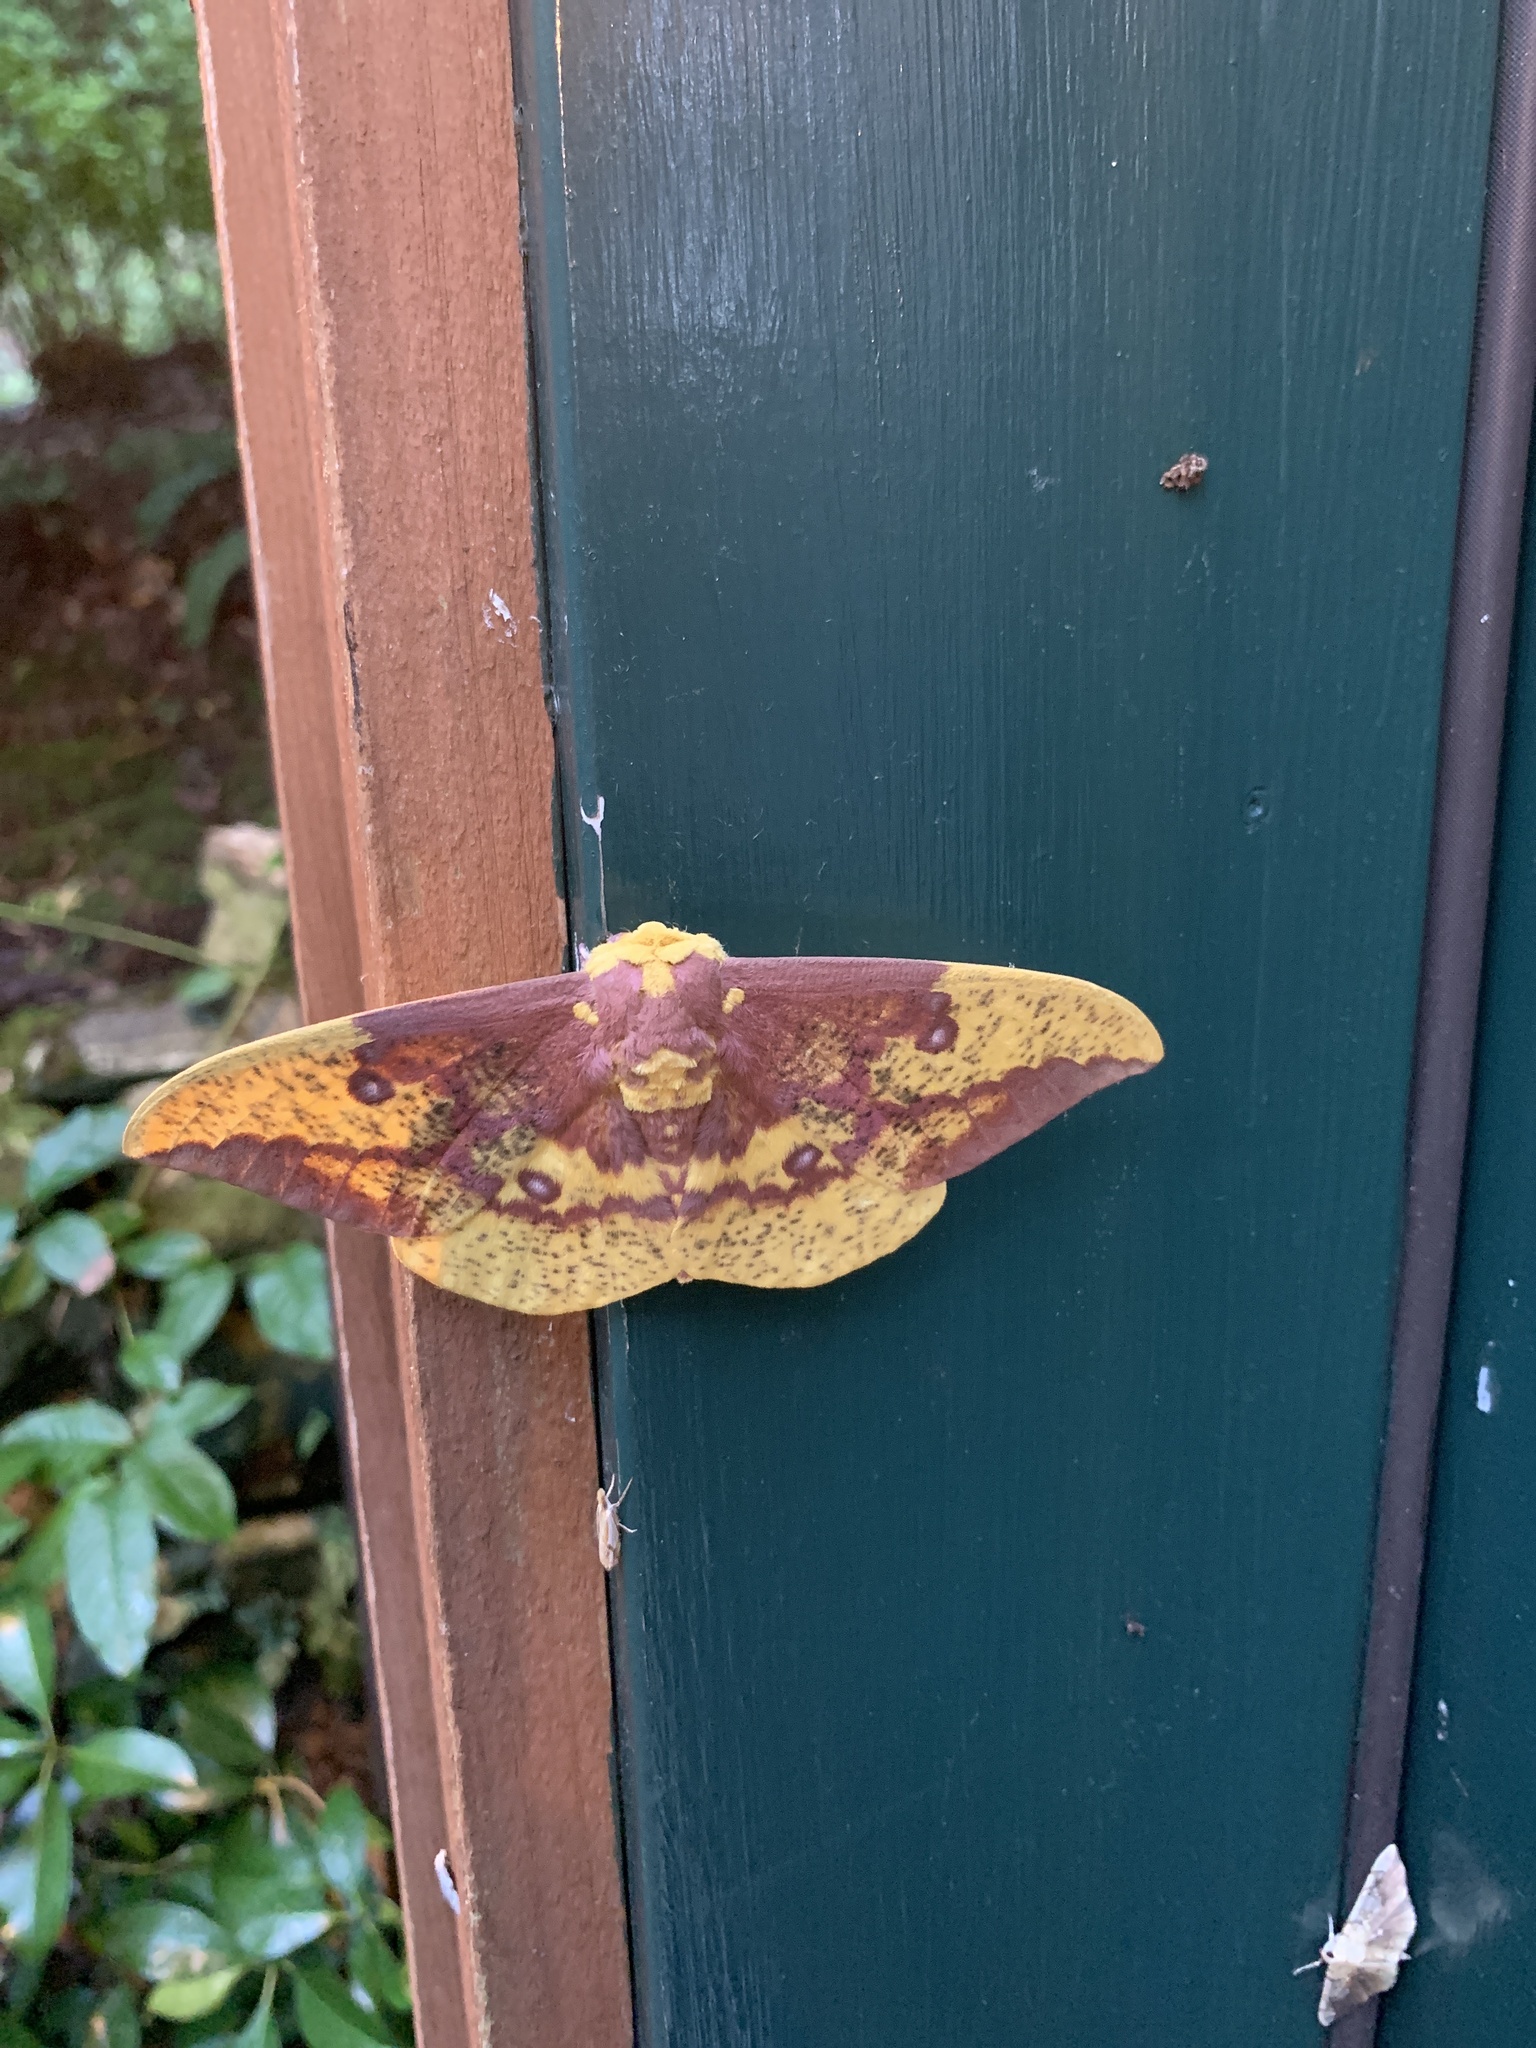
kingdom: Animalia
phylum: Arthropoda
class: Insecta
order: Lepidoptera
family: Saturniidae
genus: Eacles
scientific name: Eacles imperialis
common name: Imperial moth
